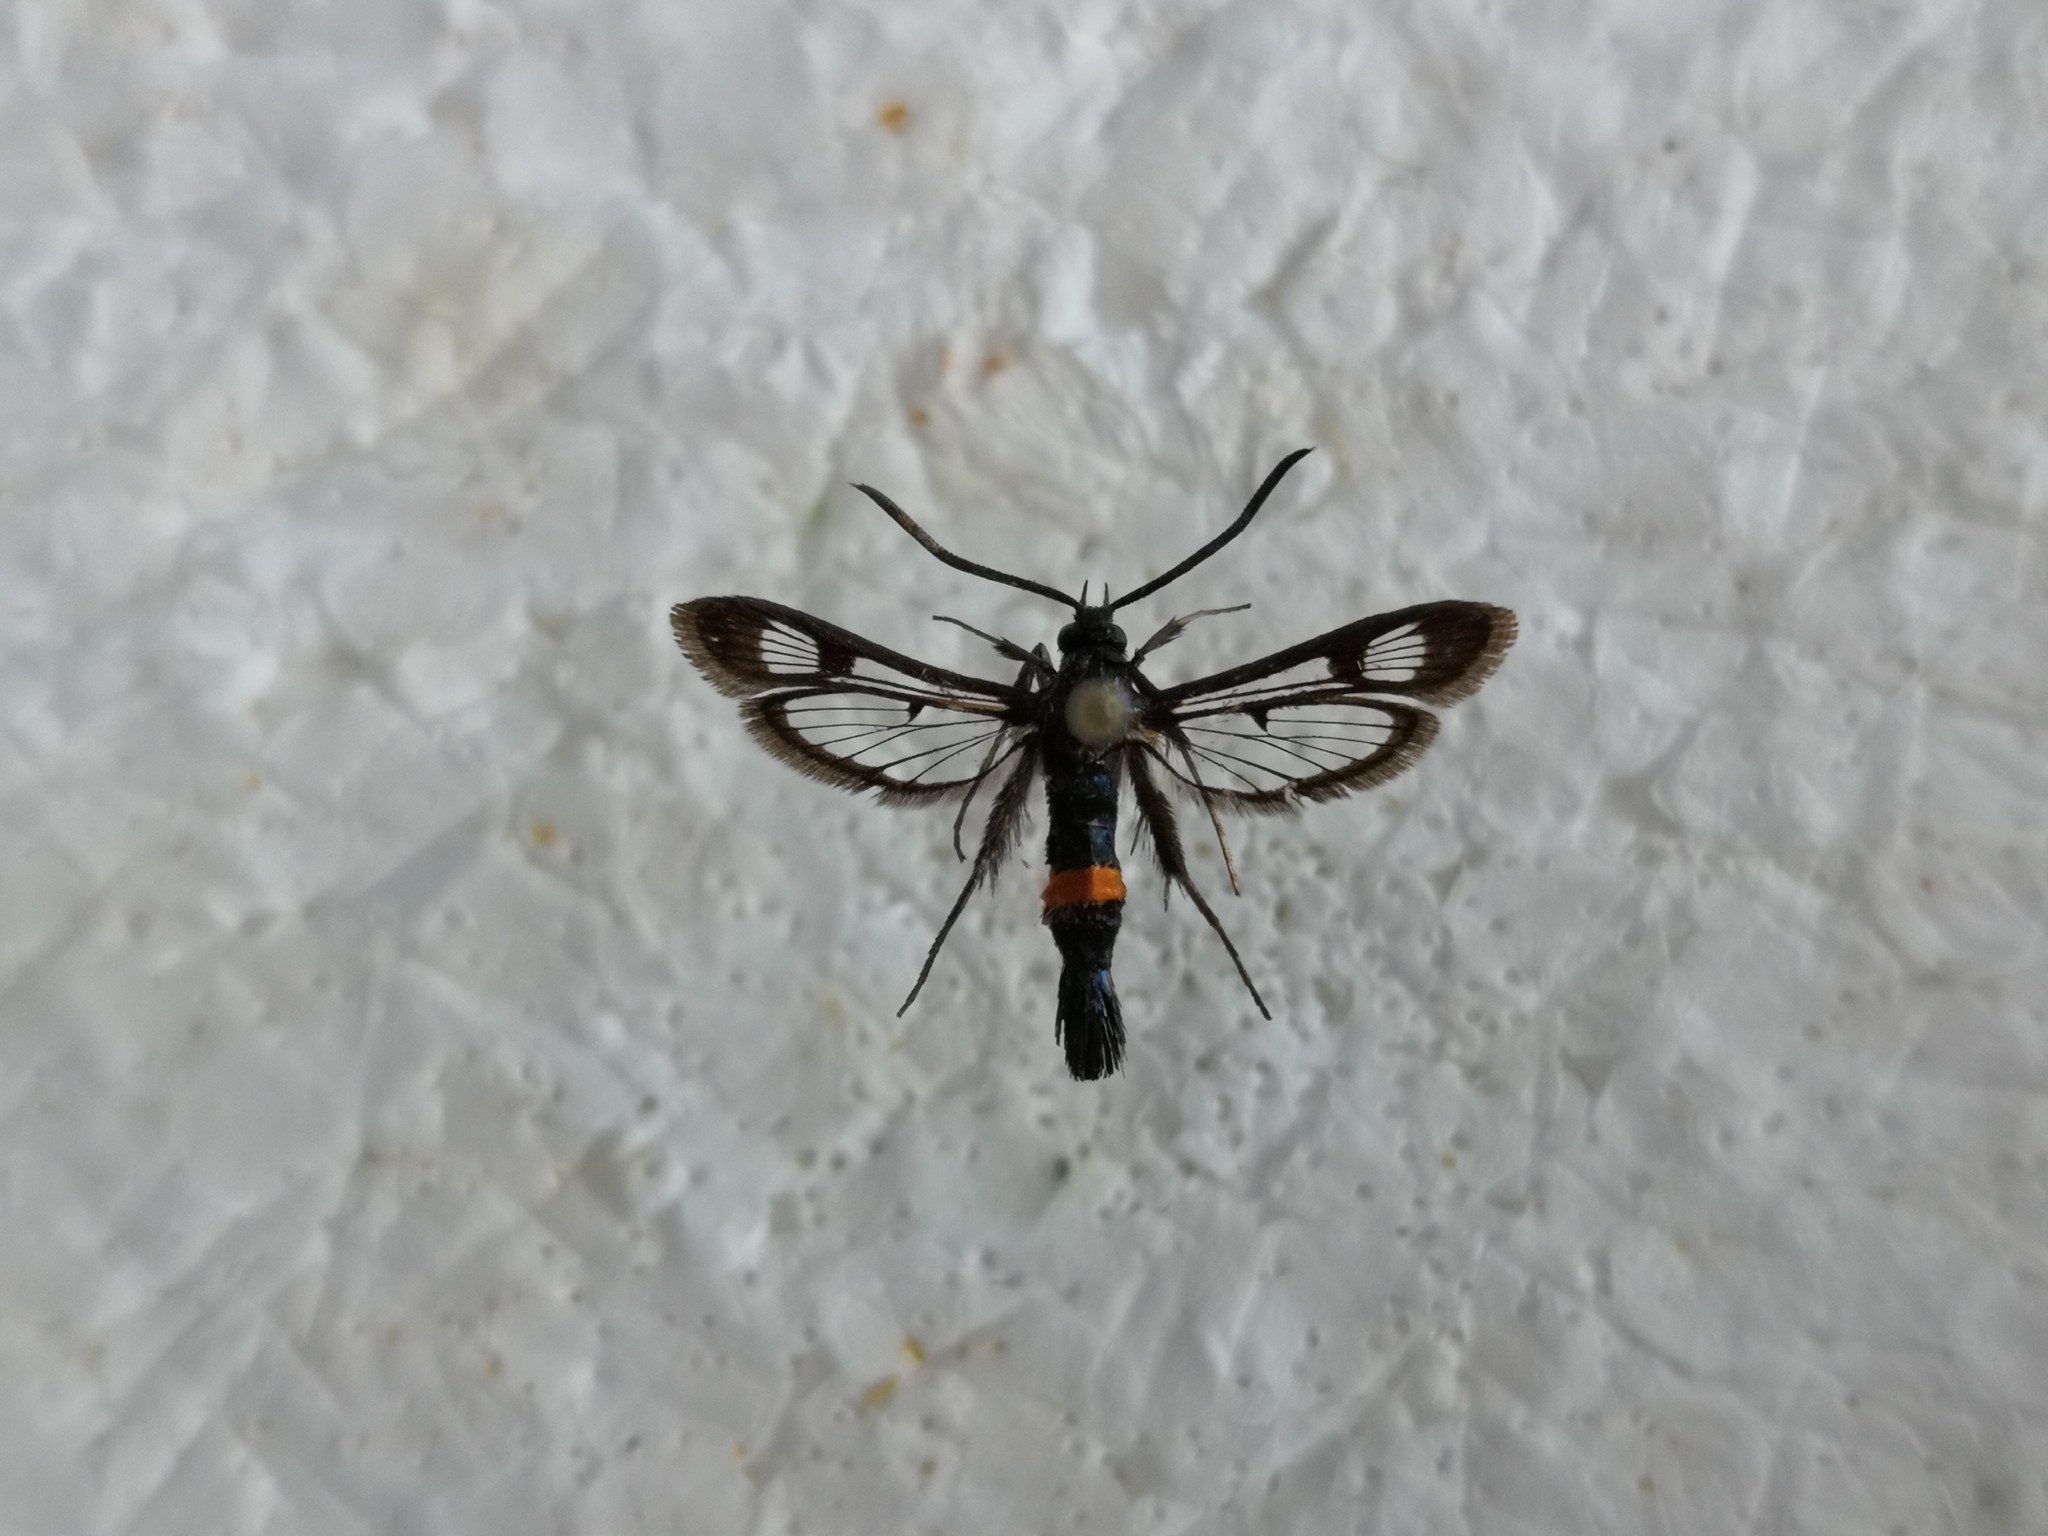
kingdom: Animalia
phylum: Arthropoda
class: Insecta
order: Lepidoptera
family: Sesiidae
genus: Synanthedon
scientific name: Synanthedon myopaeformis
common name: Red-belted clearwing
